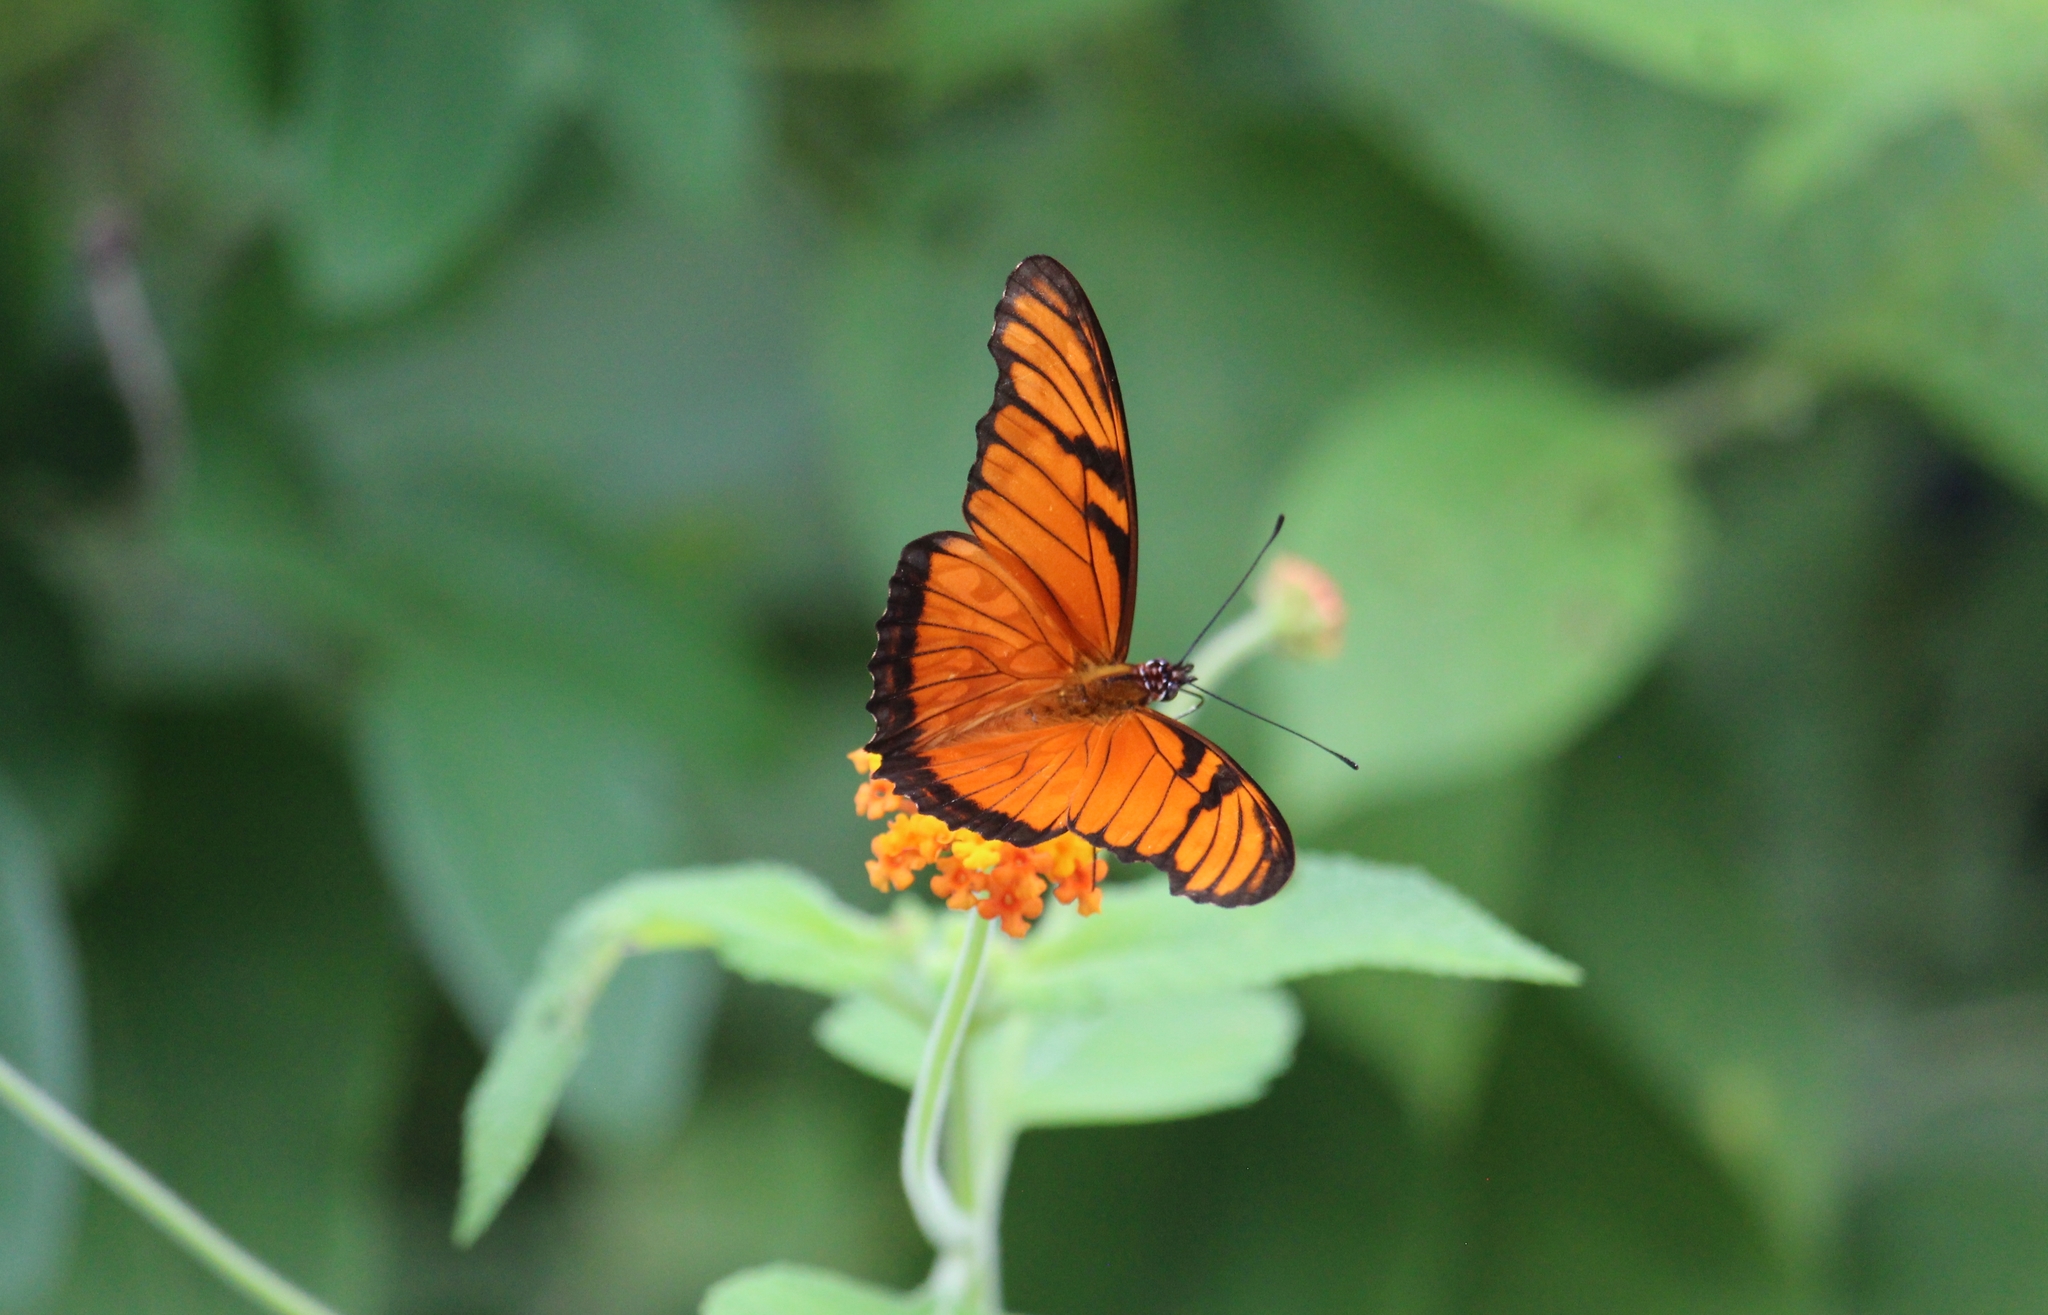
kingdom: Animalia
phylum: Arthropoda
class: Insecta
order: Lepidoptera
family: Nymphalidae
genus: Dione
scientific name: Dione juno
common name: Juno silverspot
